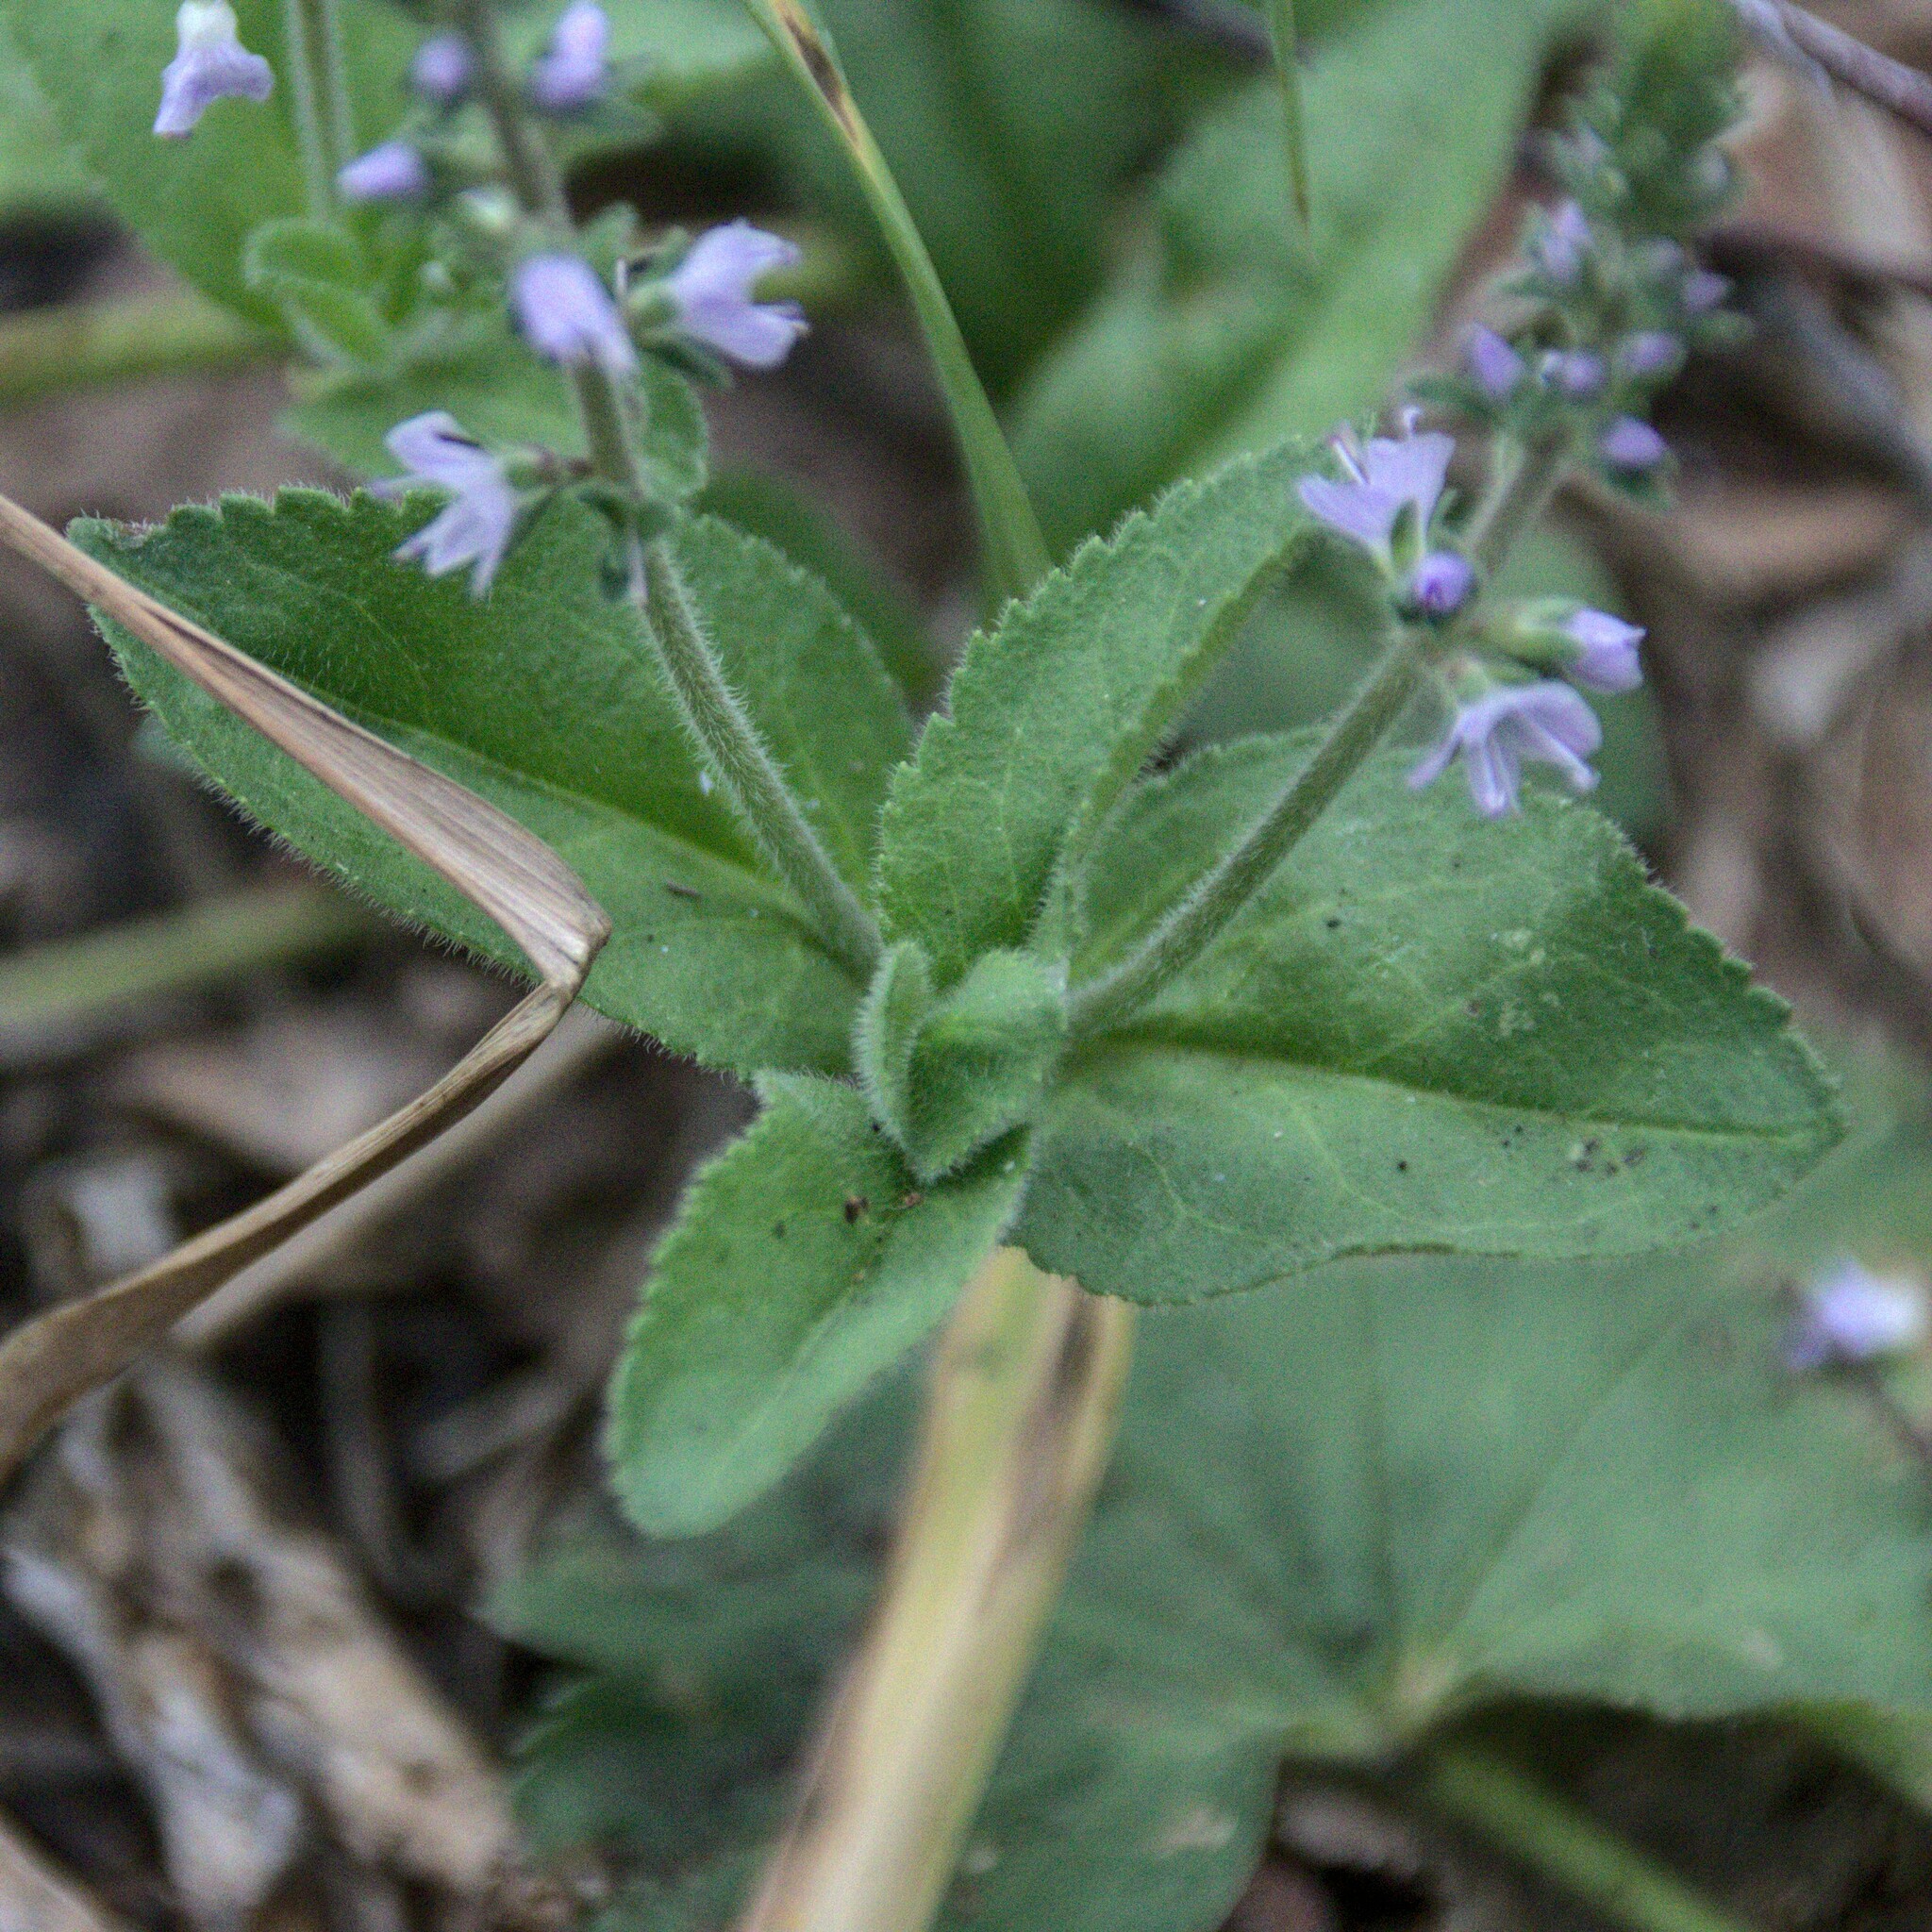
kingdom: Plantae
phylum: Tracheophyta
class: Magnoliopsida
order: Lamiales
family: Plantaginaceae
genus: Veronica
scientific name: Veronica officinalis
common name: Common speedwell
